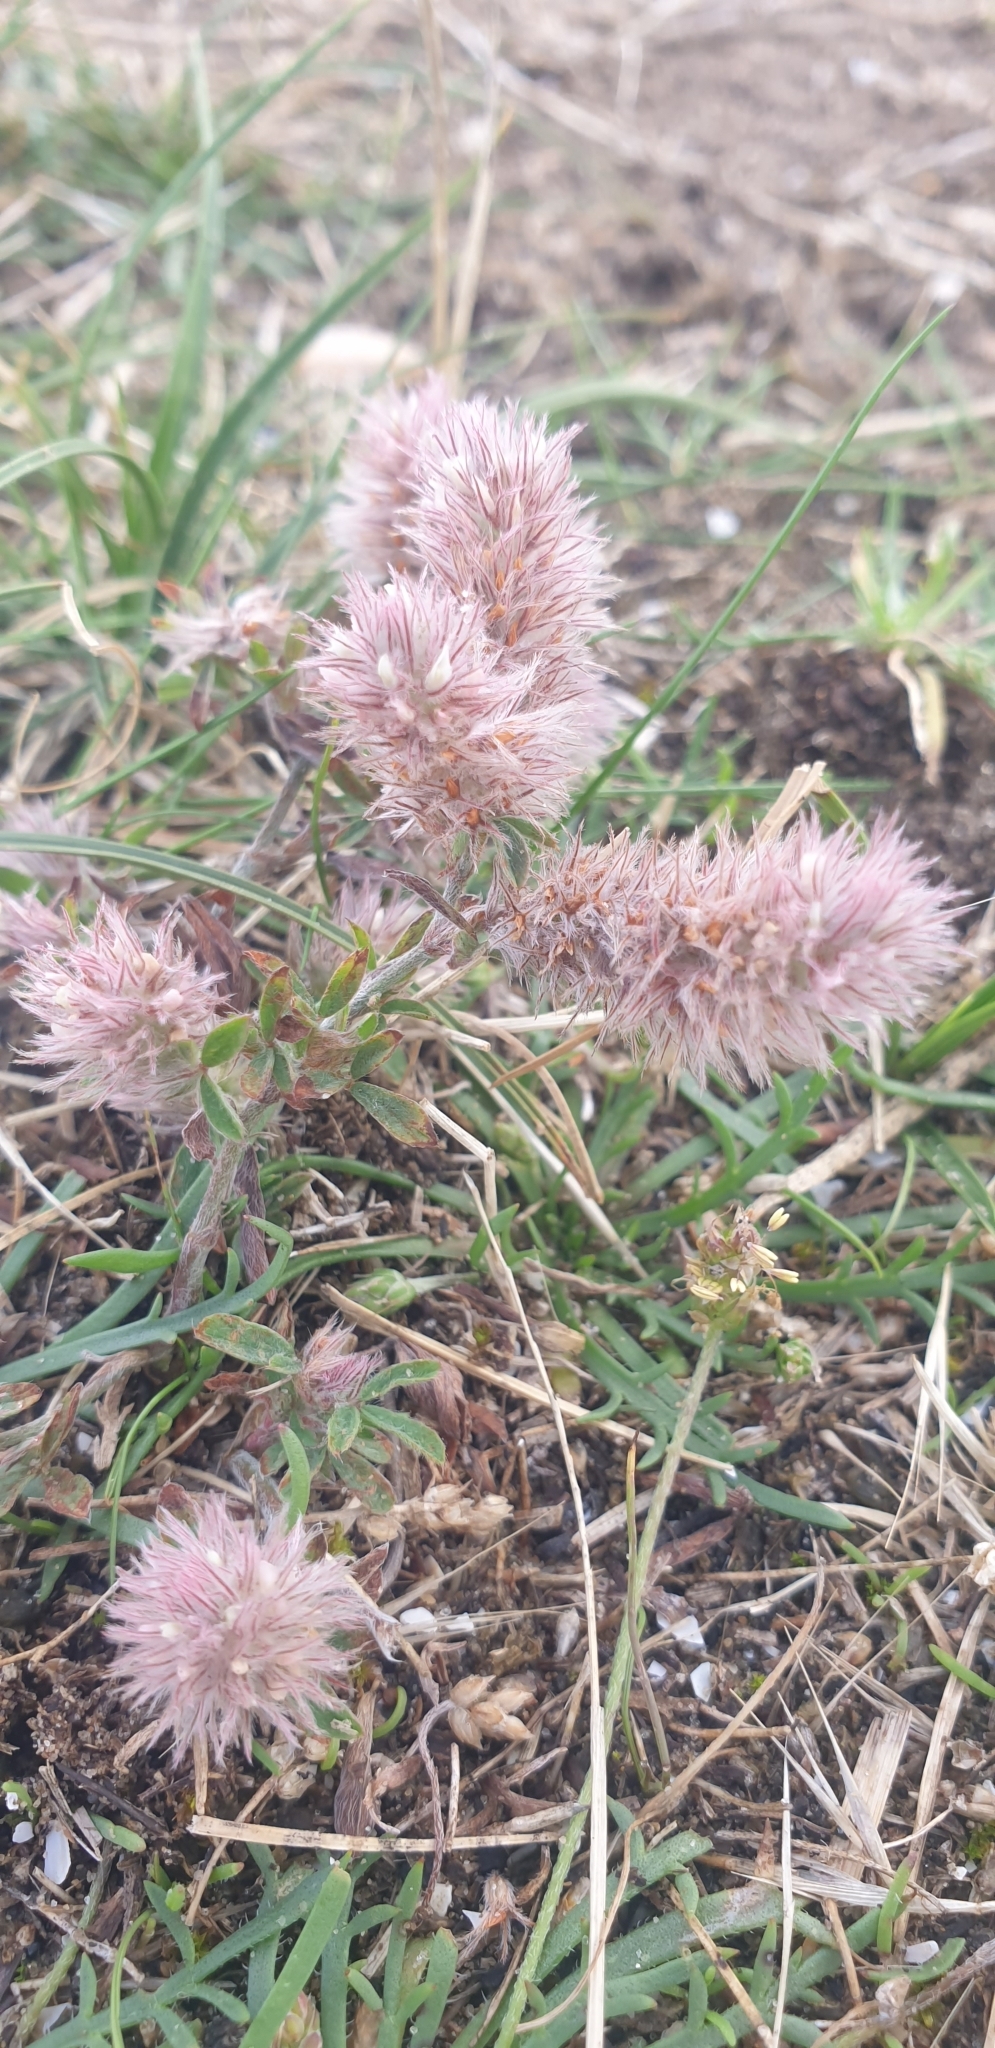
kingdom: Plantae
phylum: Tracheophyta
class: Magnoliopsida
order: Fabales
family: Fabaceae
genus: Trifolium
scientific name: Trifolium arvense
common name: Hare's-foot clover
